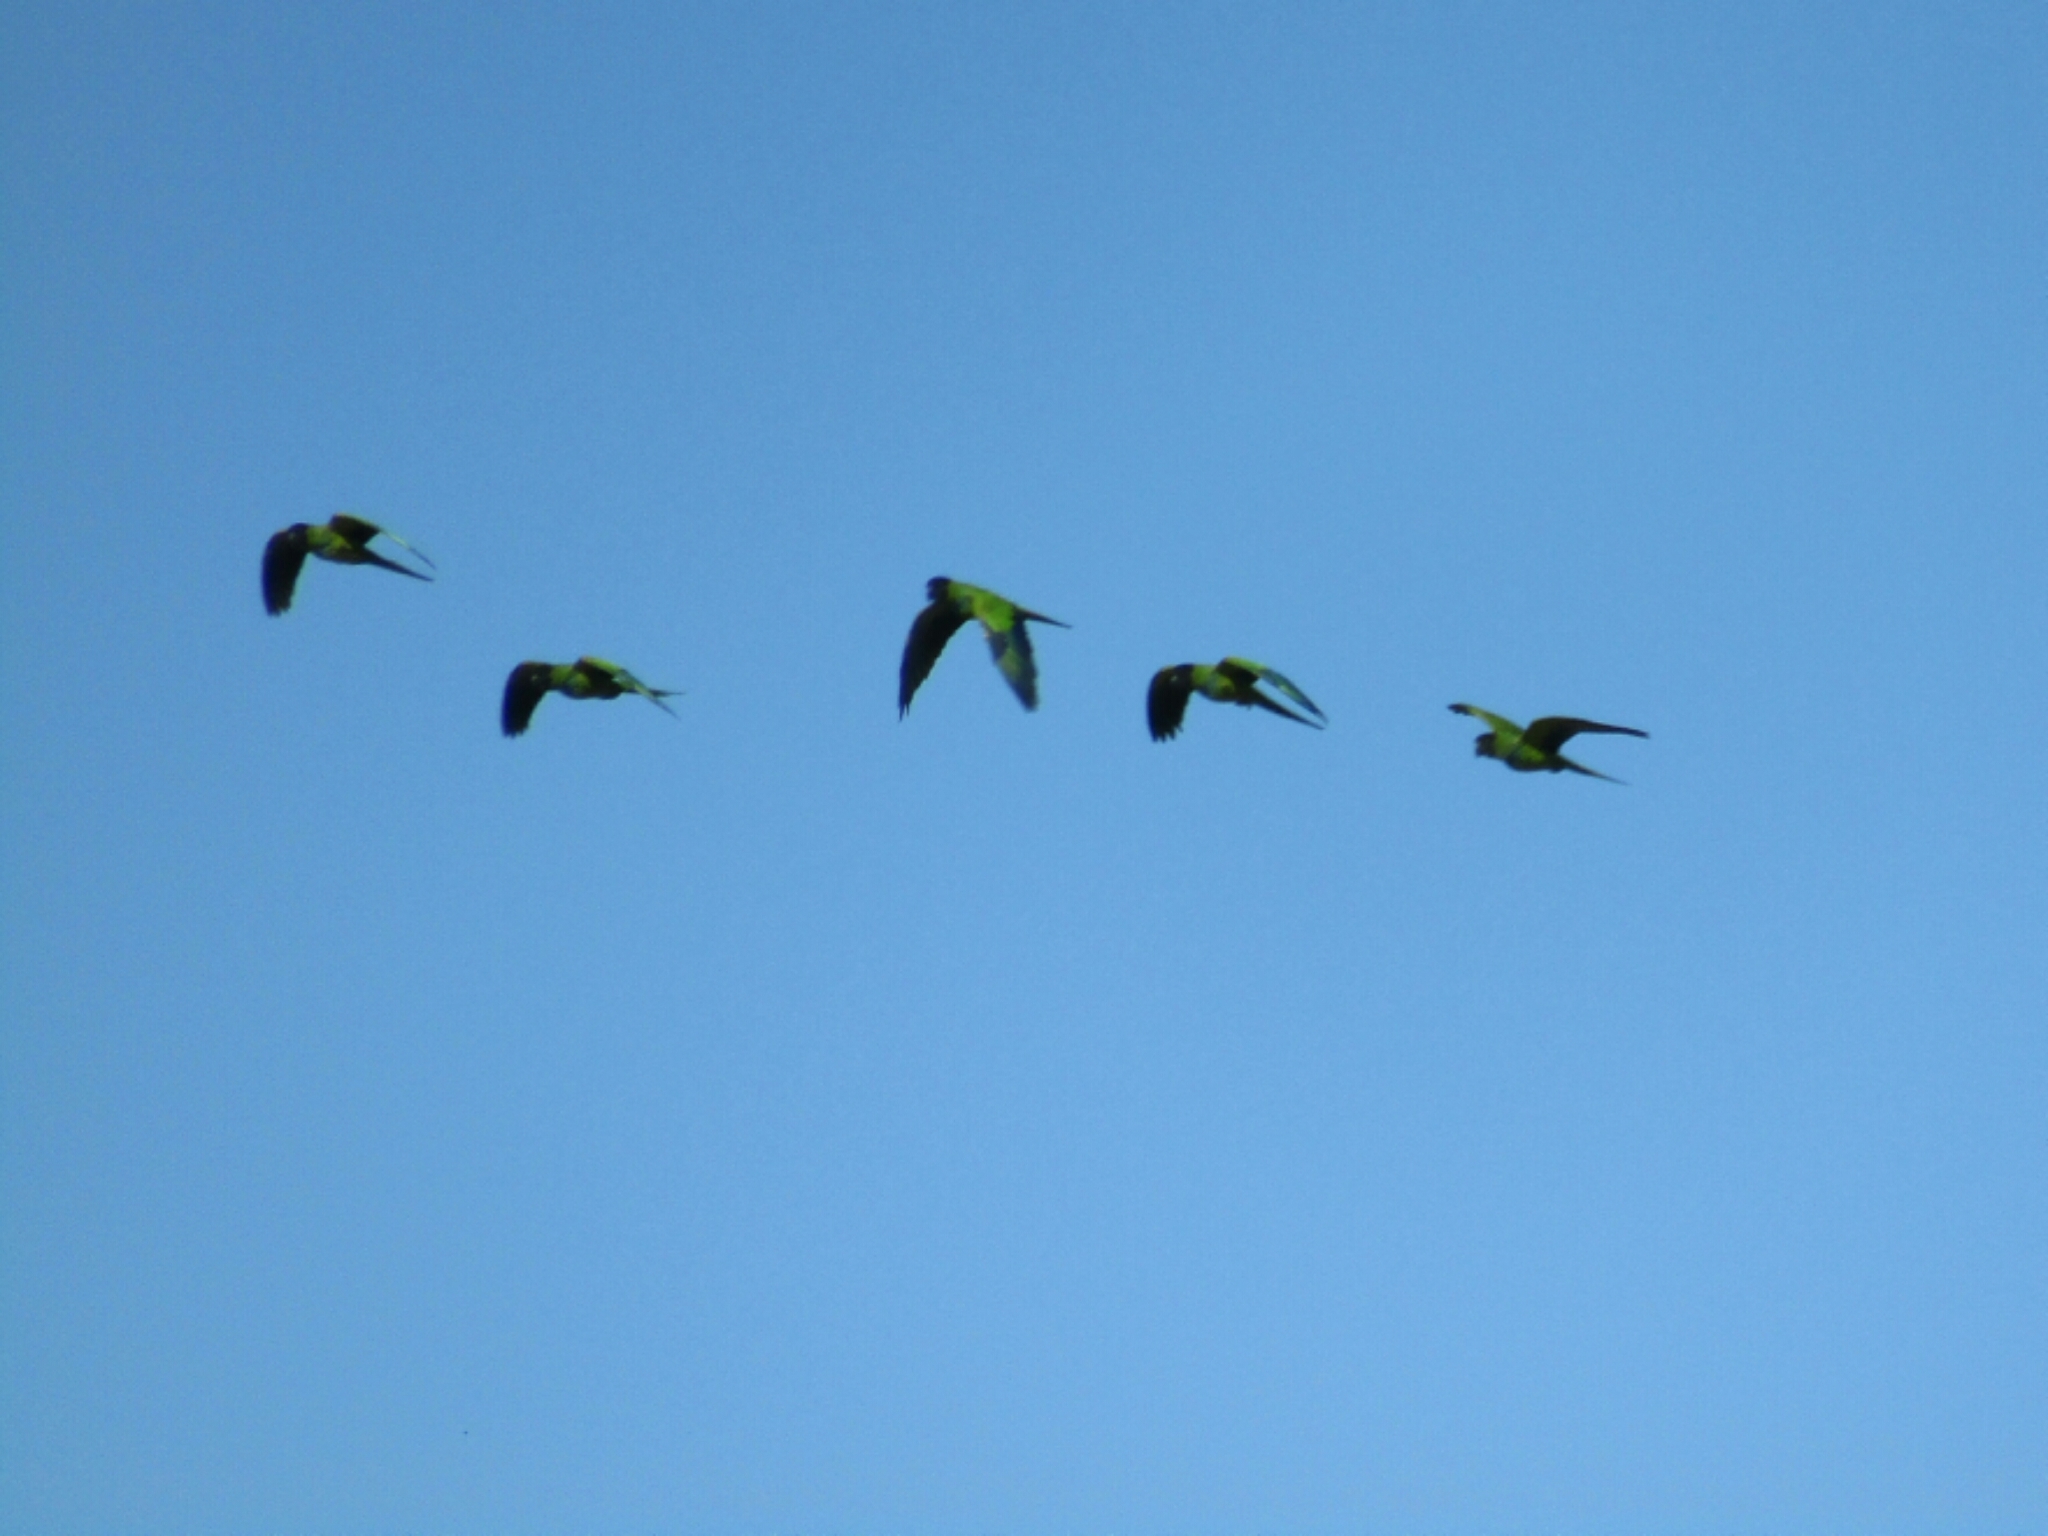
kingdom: Animalia
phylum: Chordata
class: Aves
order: Psittaciformes
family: Psittacidae
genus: Nandayus
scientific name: Nandayus nenday
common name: Nanday parakeet
